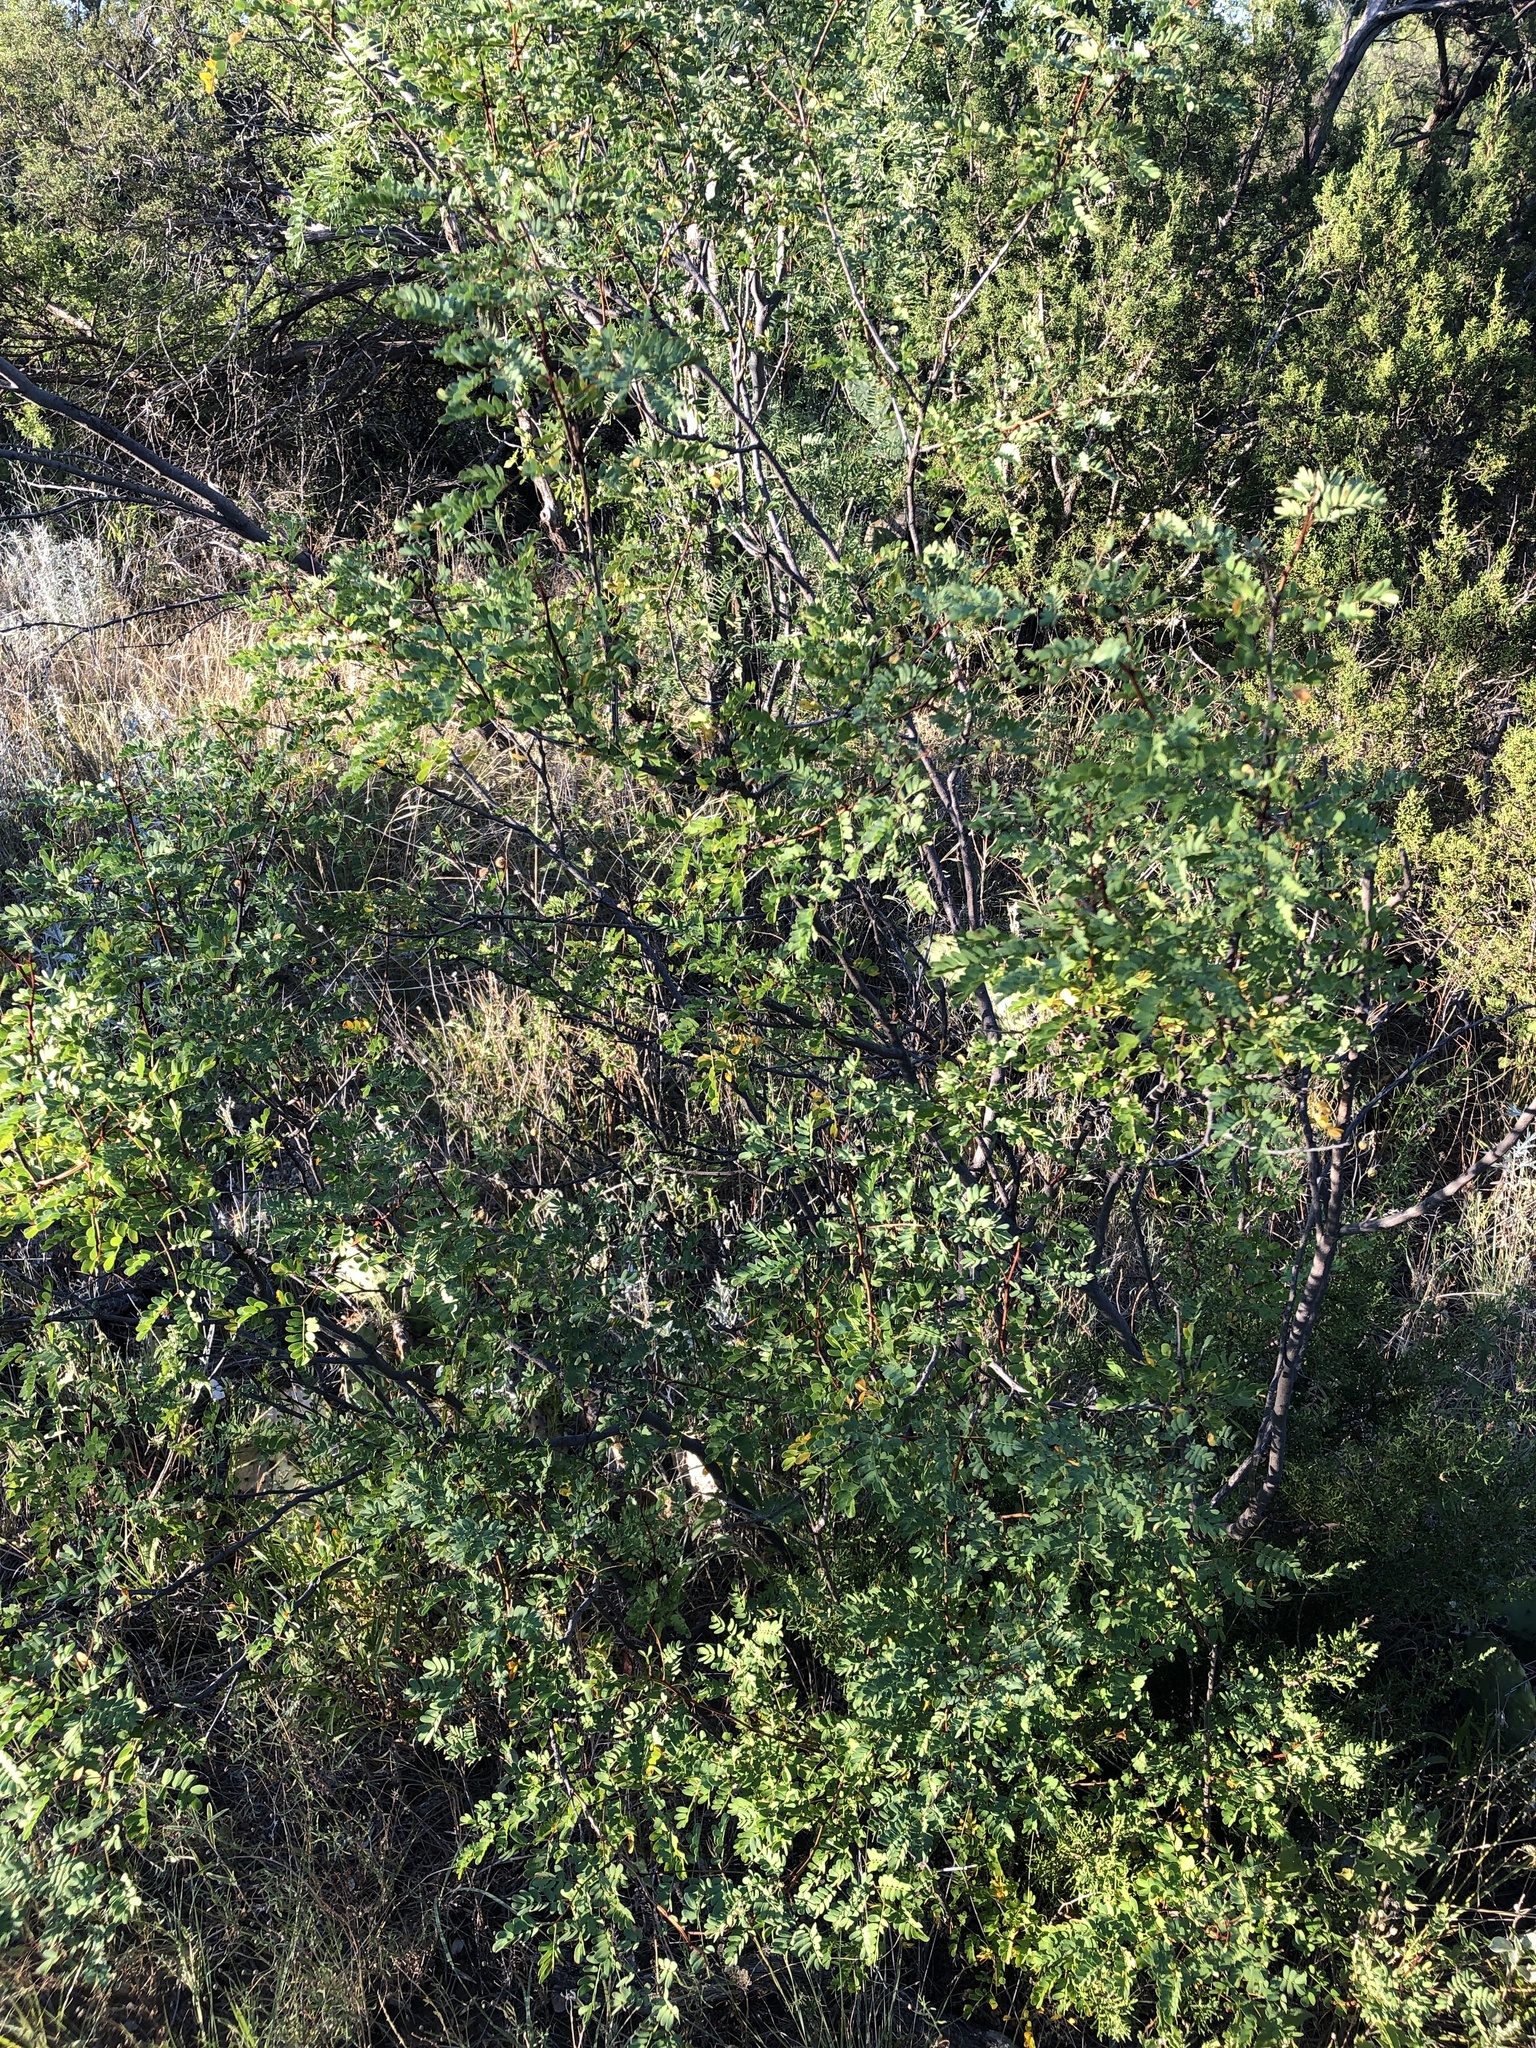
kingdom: Plantae
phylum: Tracheophyta
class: Magnoliopsida
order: Fabales
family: Fabaceae
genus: Senegalia
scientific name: Senegalia roemeriana
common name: Roemer's acacia
